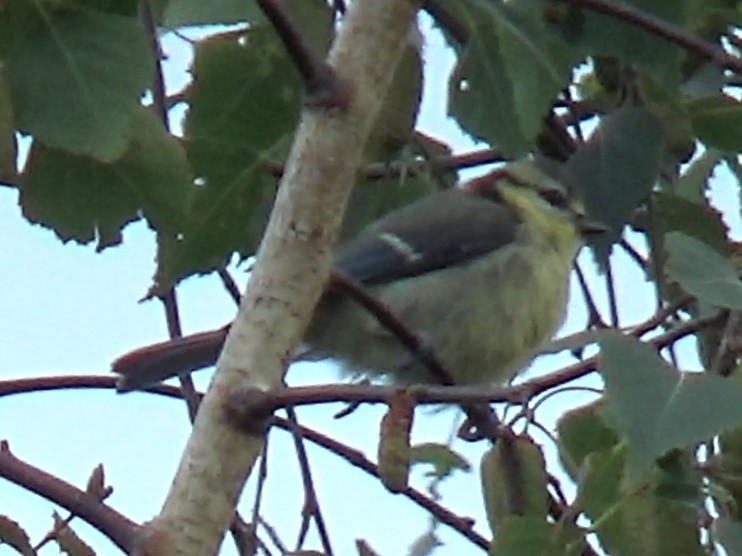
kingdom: Animalia
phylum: Chordata
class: Aves
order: Passeriformes
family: Paridae
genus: Cyanistes
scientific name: Cyanistes caeruleus
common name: Eurasian blue tit
